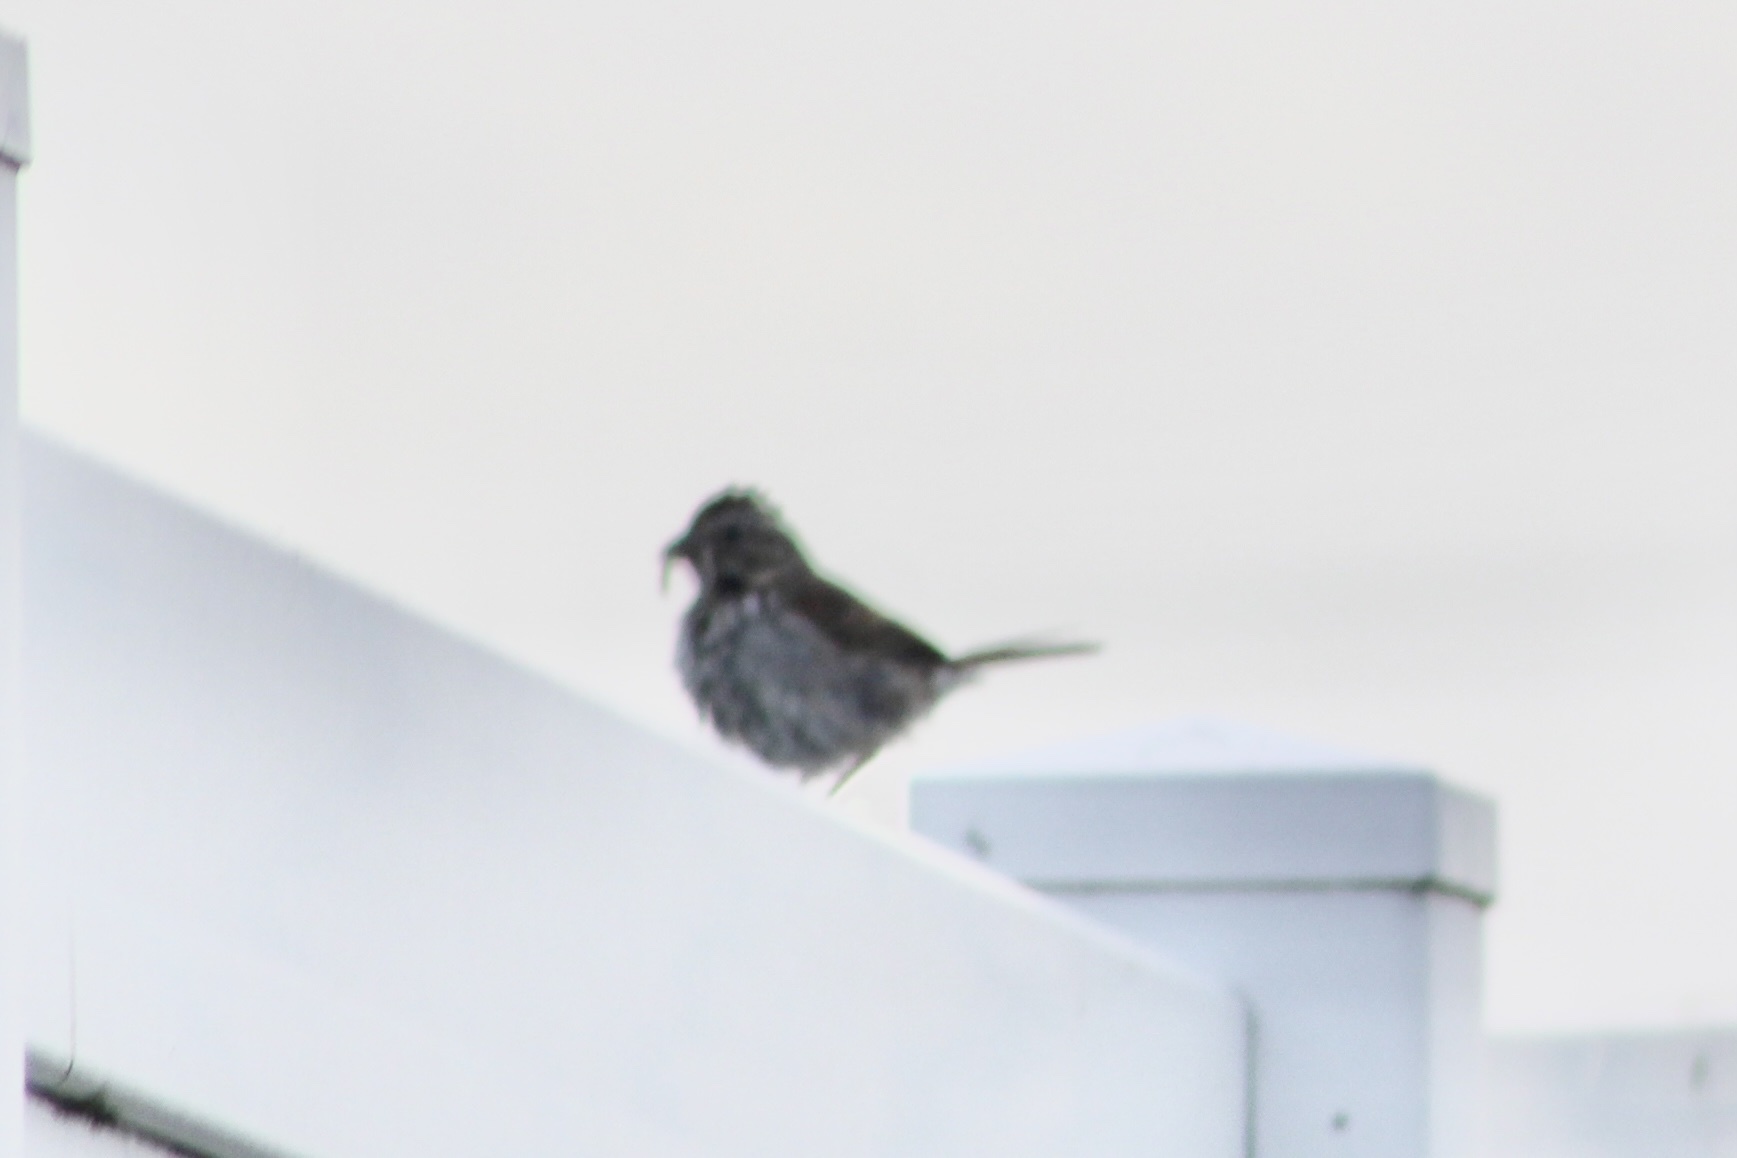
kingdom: Animalia
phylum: Chordata
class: Aves
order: Passeriformes
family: Passerellidae
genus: Melospiza
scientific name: Melospiza melodia
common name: Song sparrow
